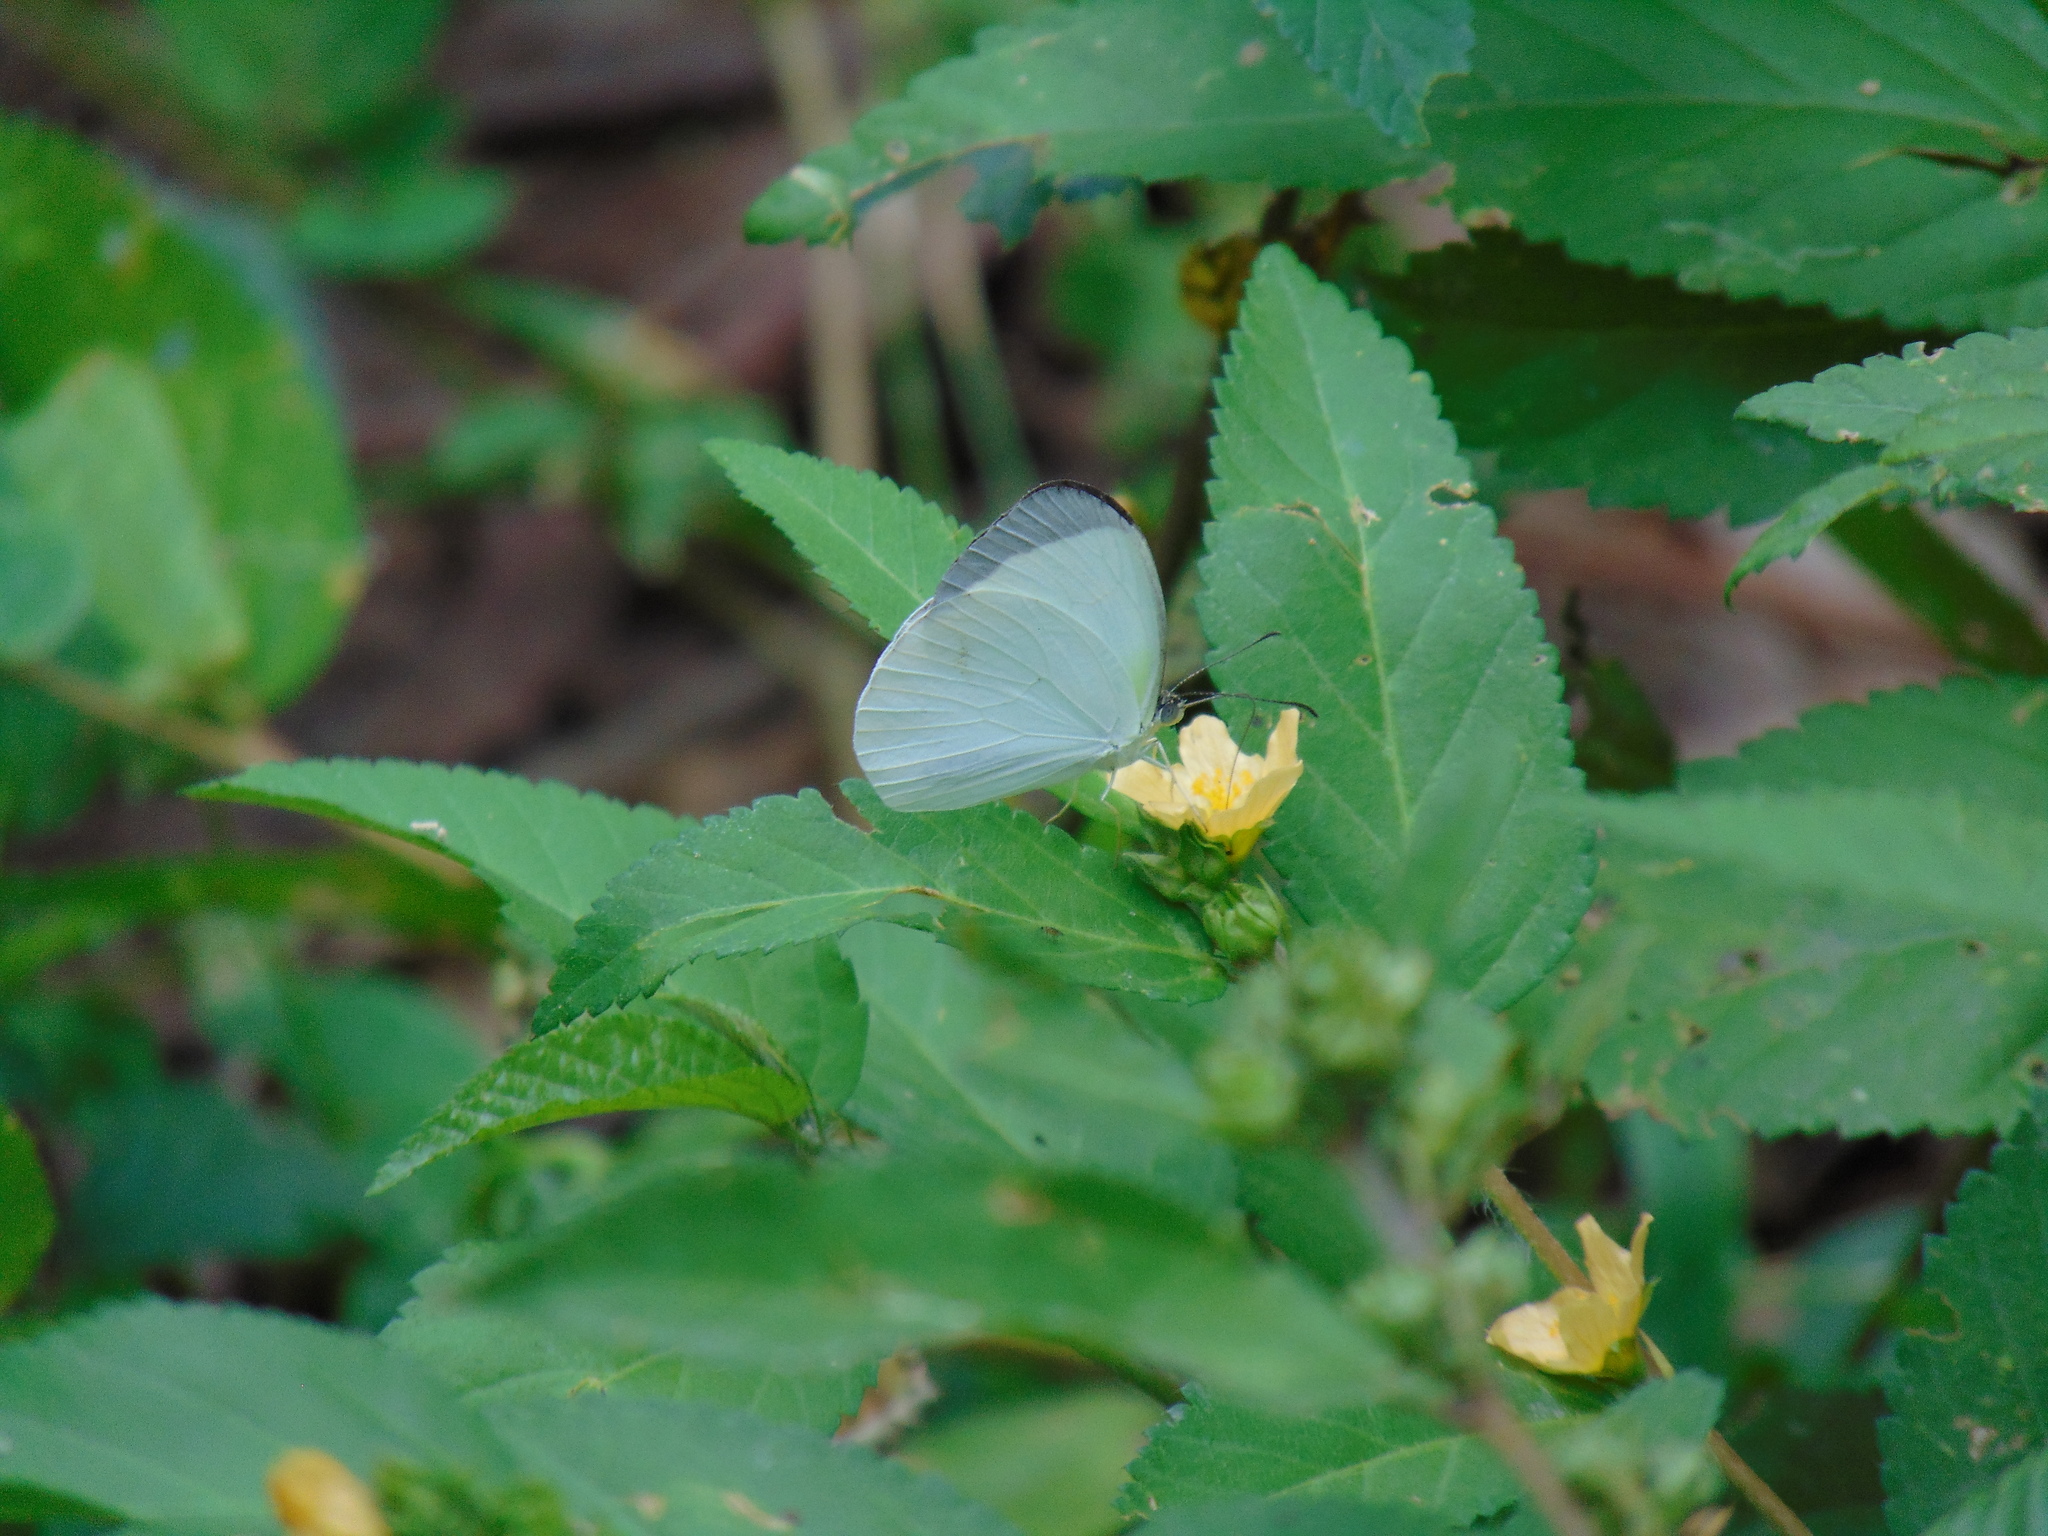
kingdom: Animalia
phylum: Arthropoda
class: Insecta
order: Lepidoptera
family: Pieridae
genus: Abaeis
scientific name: Abaeis albula
